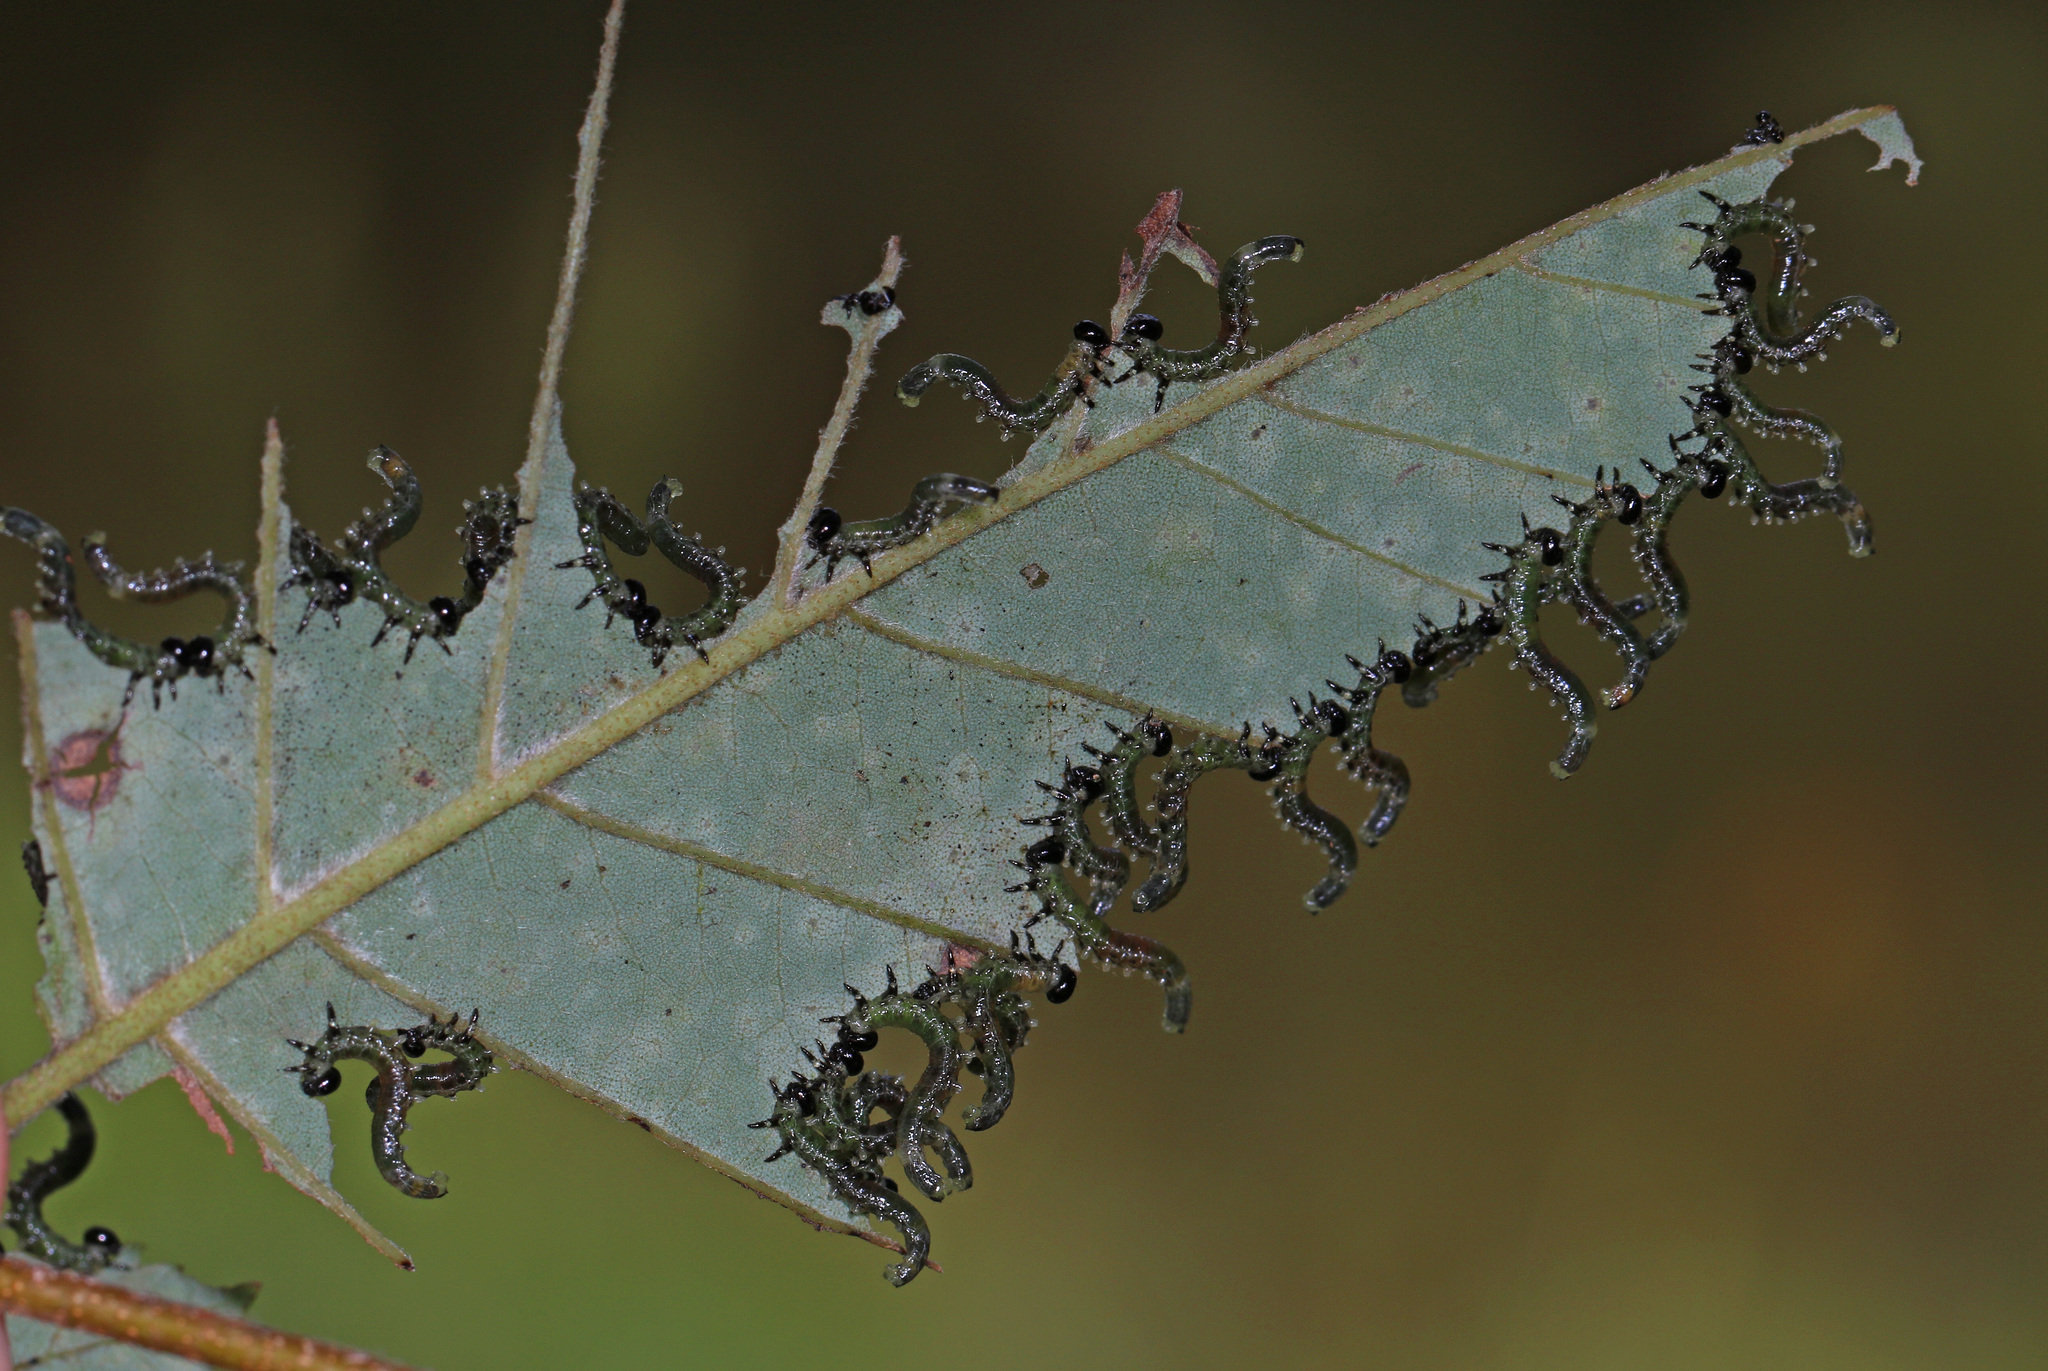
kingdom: Animalia
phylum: Arthropoda
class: Insecta
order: Hymenoptera
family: Tenthredinidae
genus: Nematus
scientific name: Nematus
